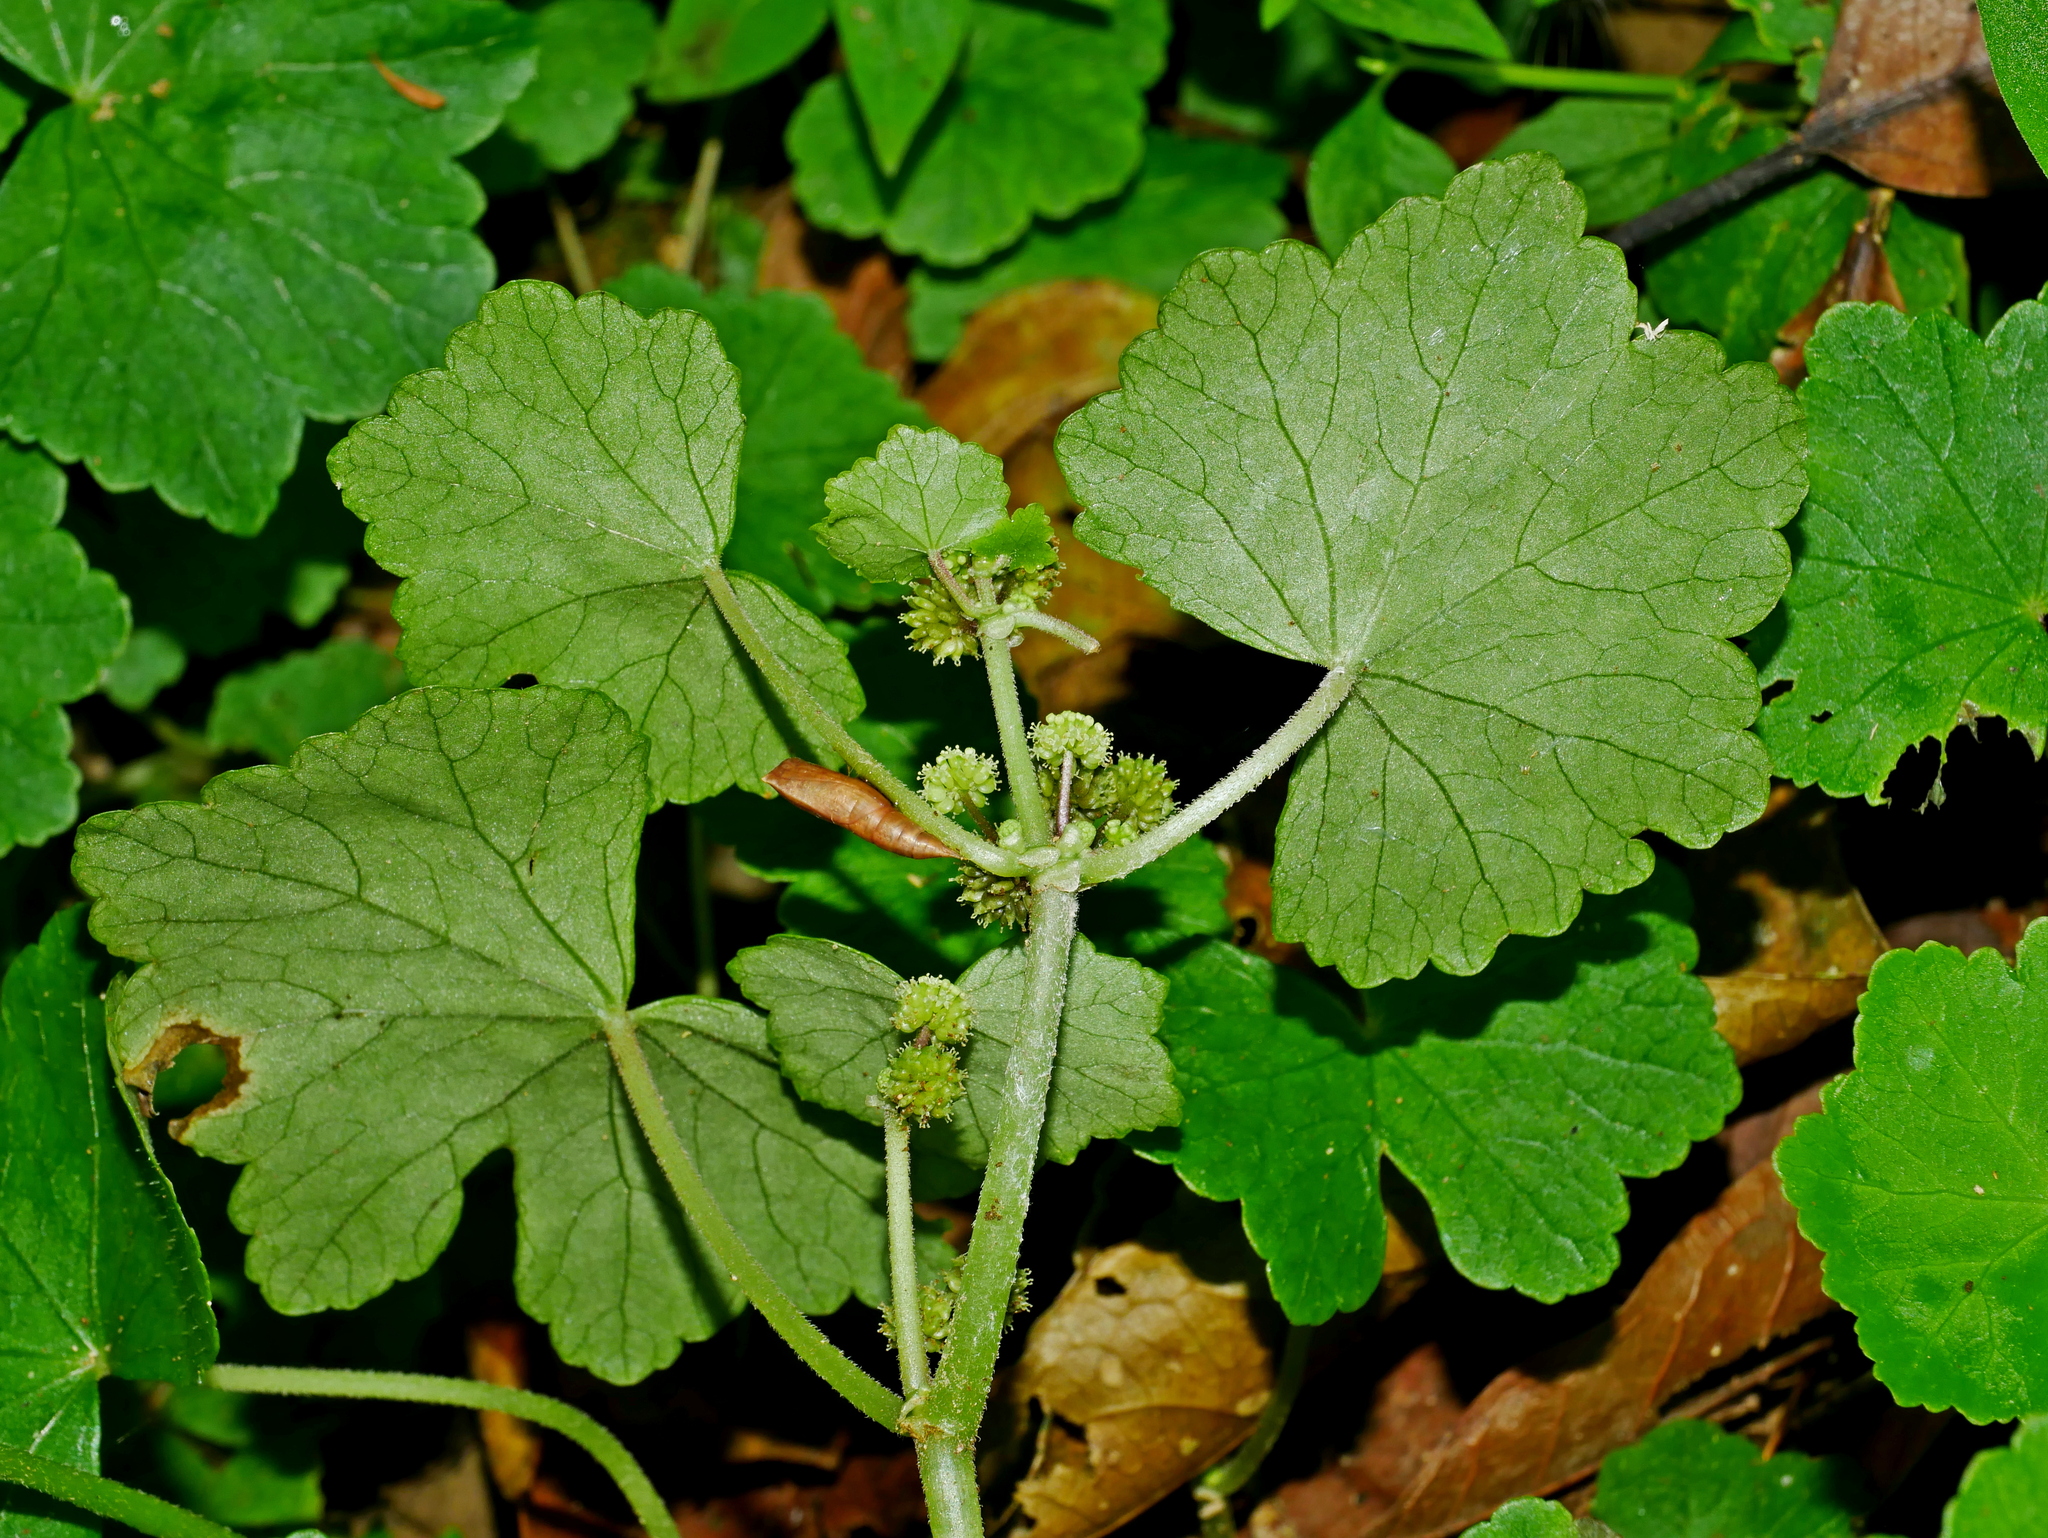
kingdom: Plantae
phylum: Tracheophyta
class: Magnoliopsida
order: Apiales
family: Araliaceae
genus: Hydrocotyle
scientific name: Hydrocotyle nepalensis
